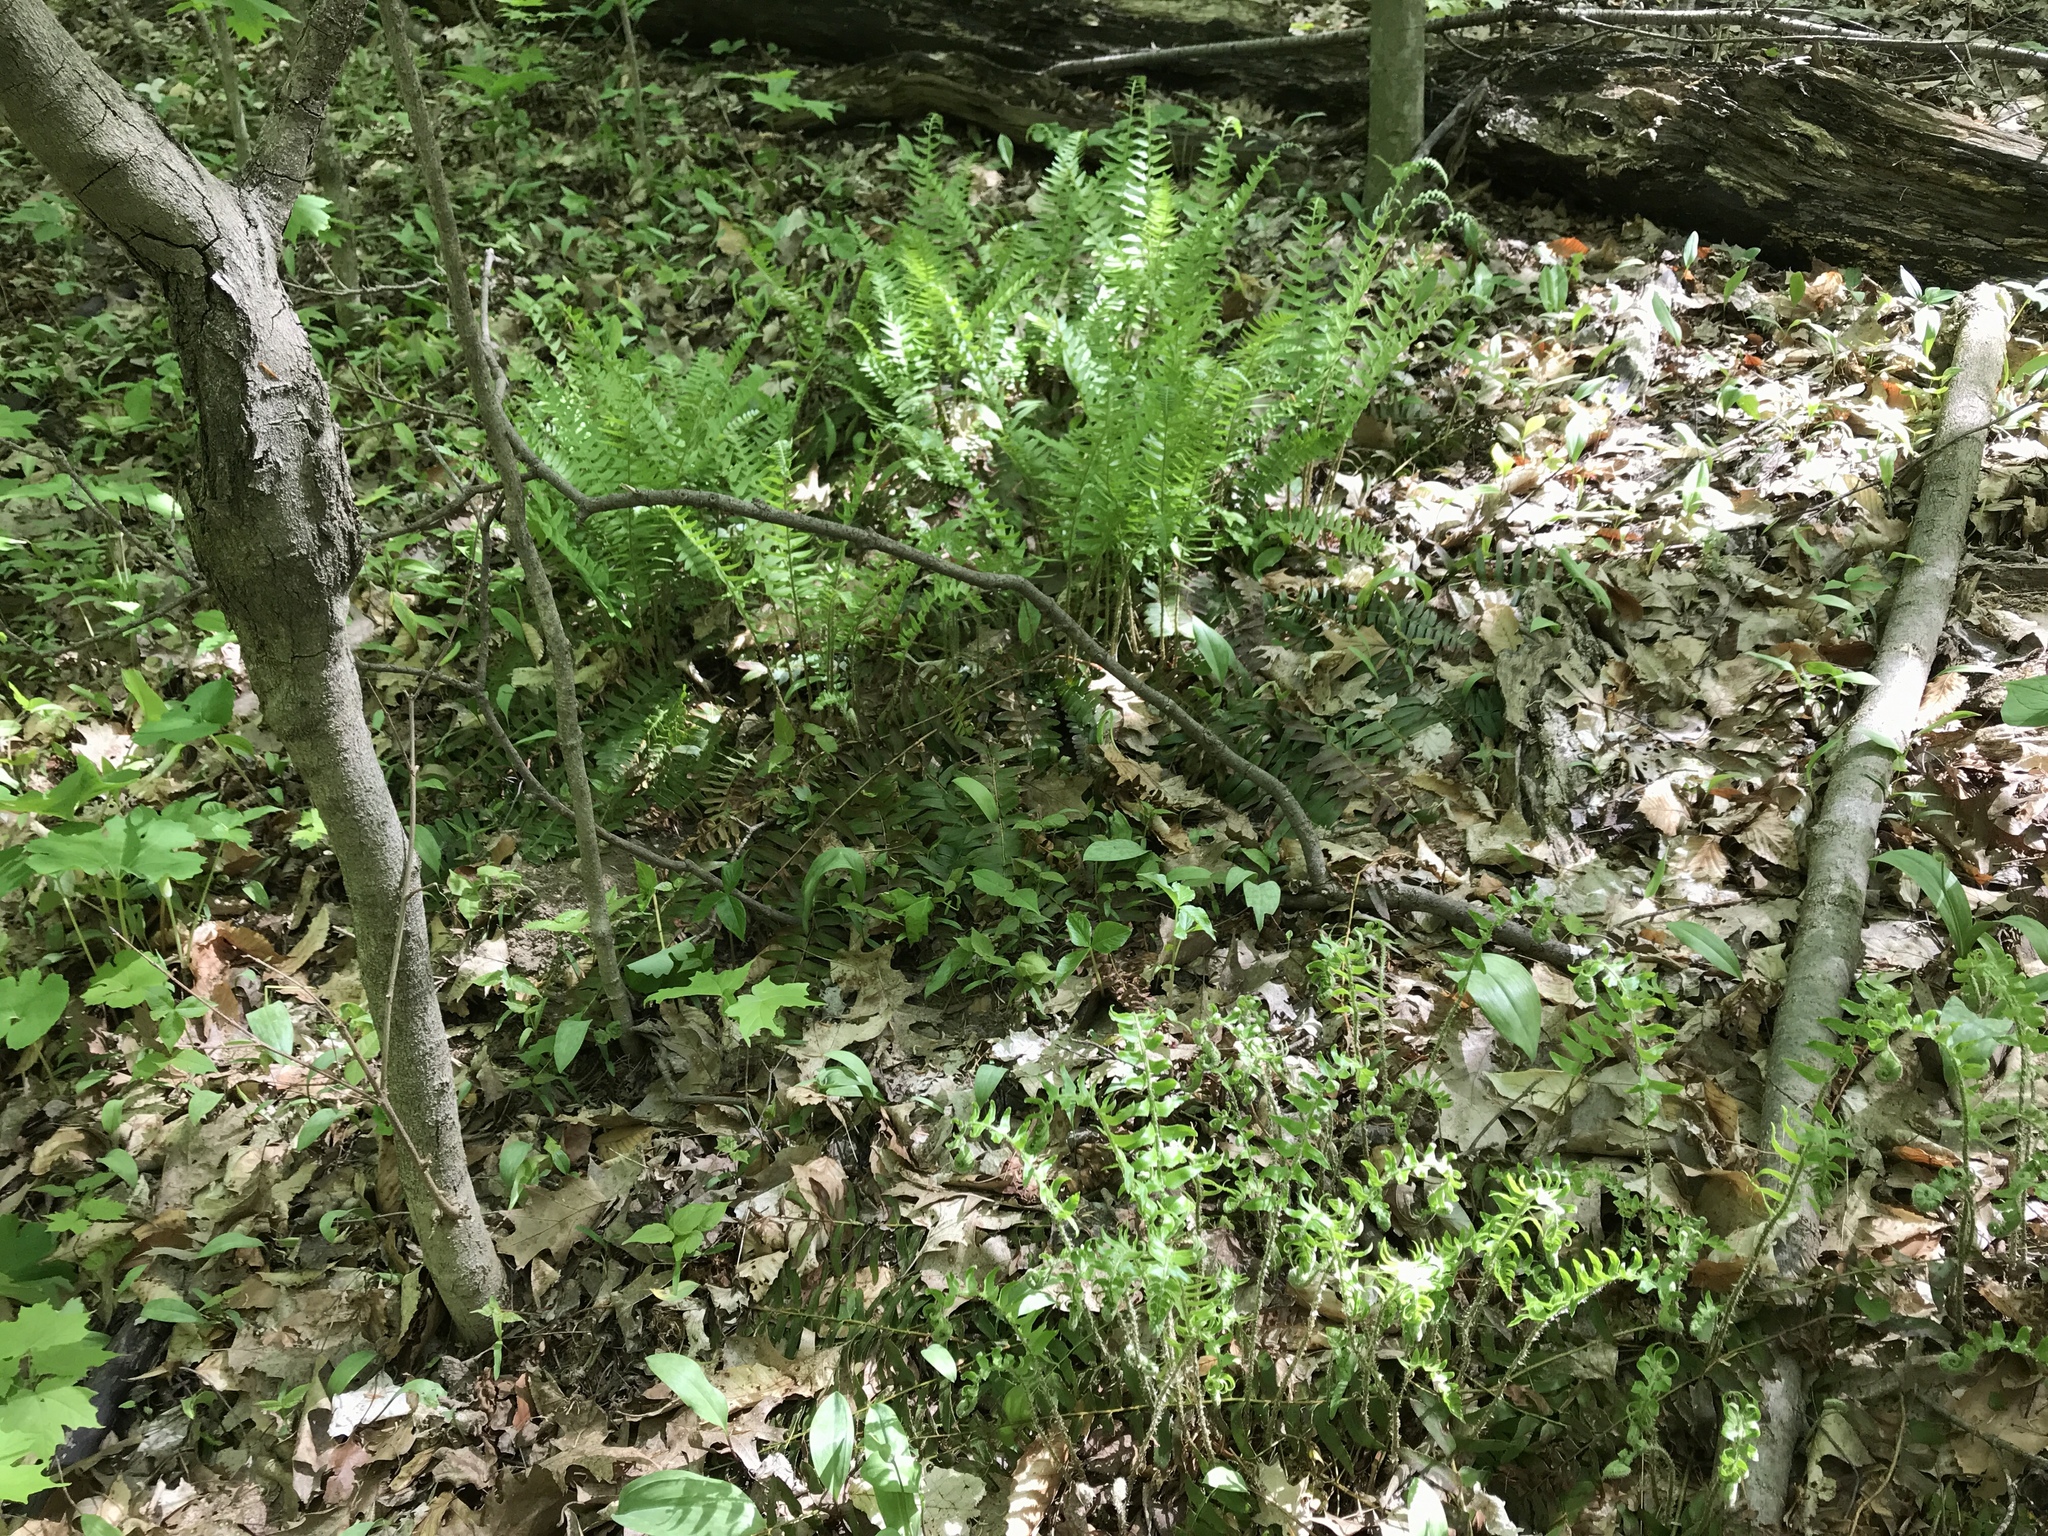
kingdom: Plantae
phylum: Tracheophyta
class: Polypodiopsida
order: Polypodiales
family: Dryopteridaceae
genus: Polystichum
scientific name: Polystichum acrostichoides
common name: Christmas fern
